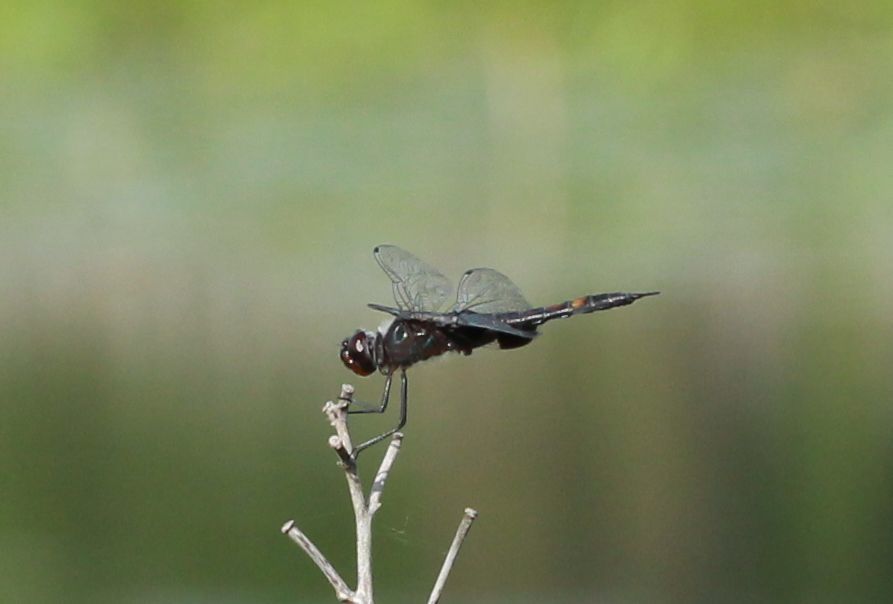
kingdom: Animalia
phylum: Arthropoda
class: Insecta
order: Odonata
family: Libellulidae
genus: Tramea
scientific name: Tramea lacerata
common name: Black saddlebags
